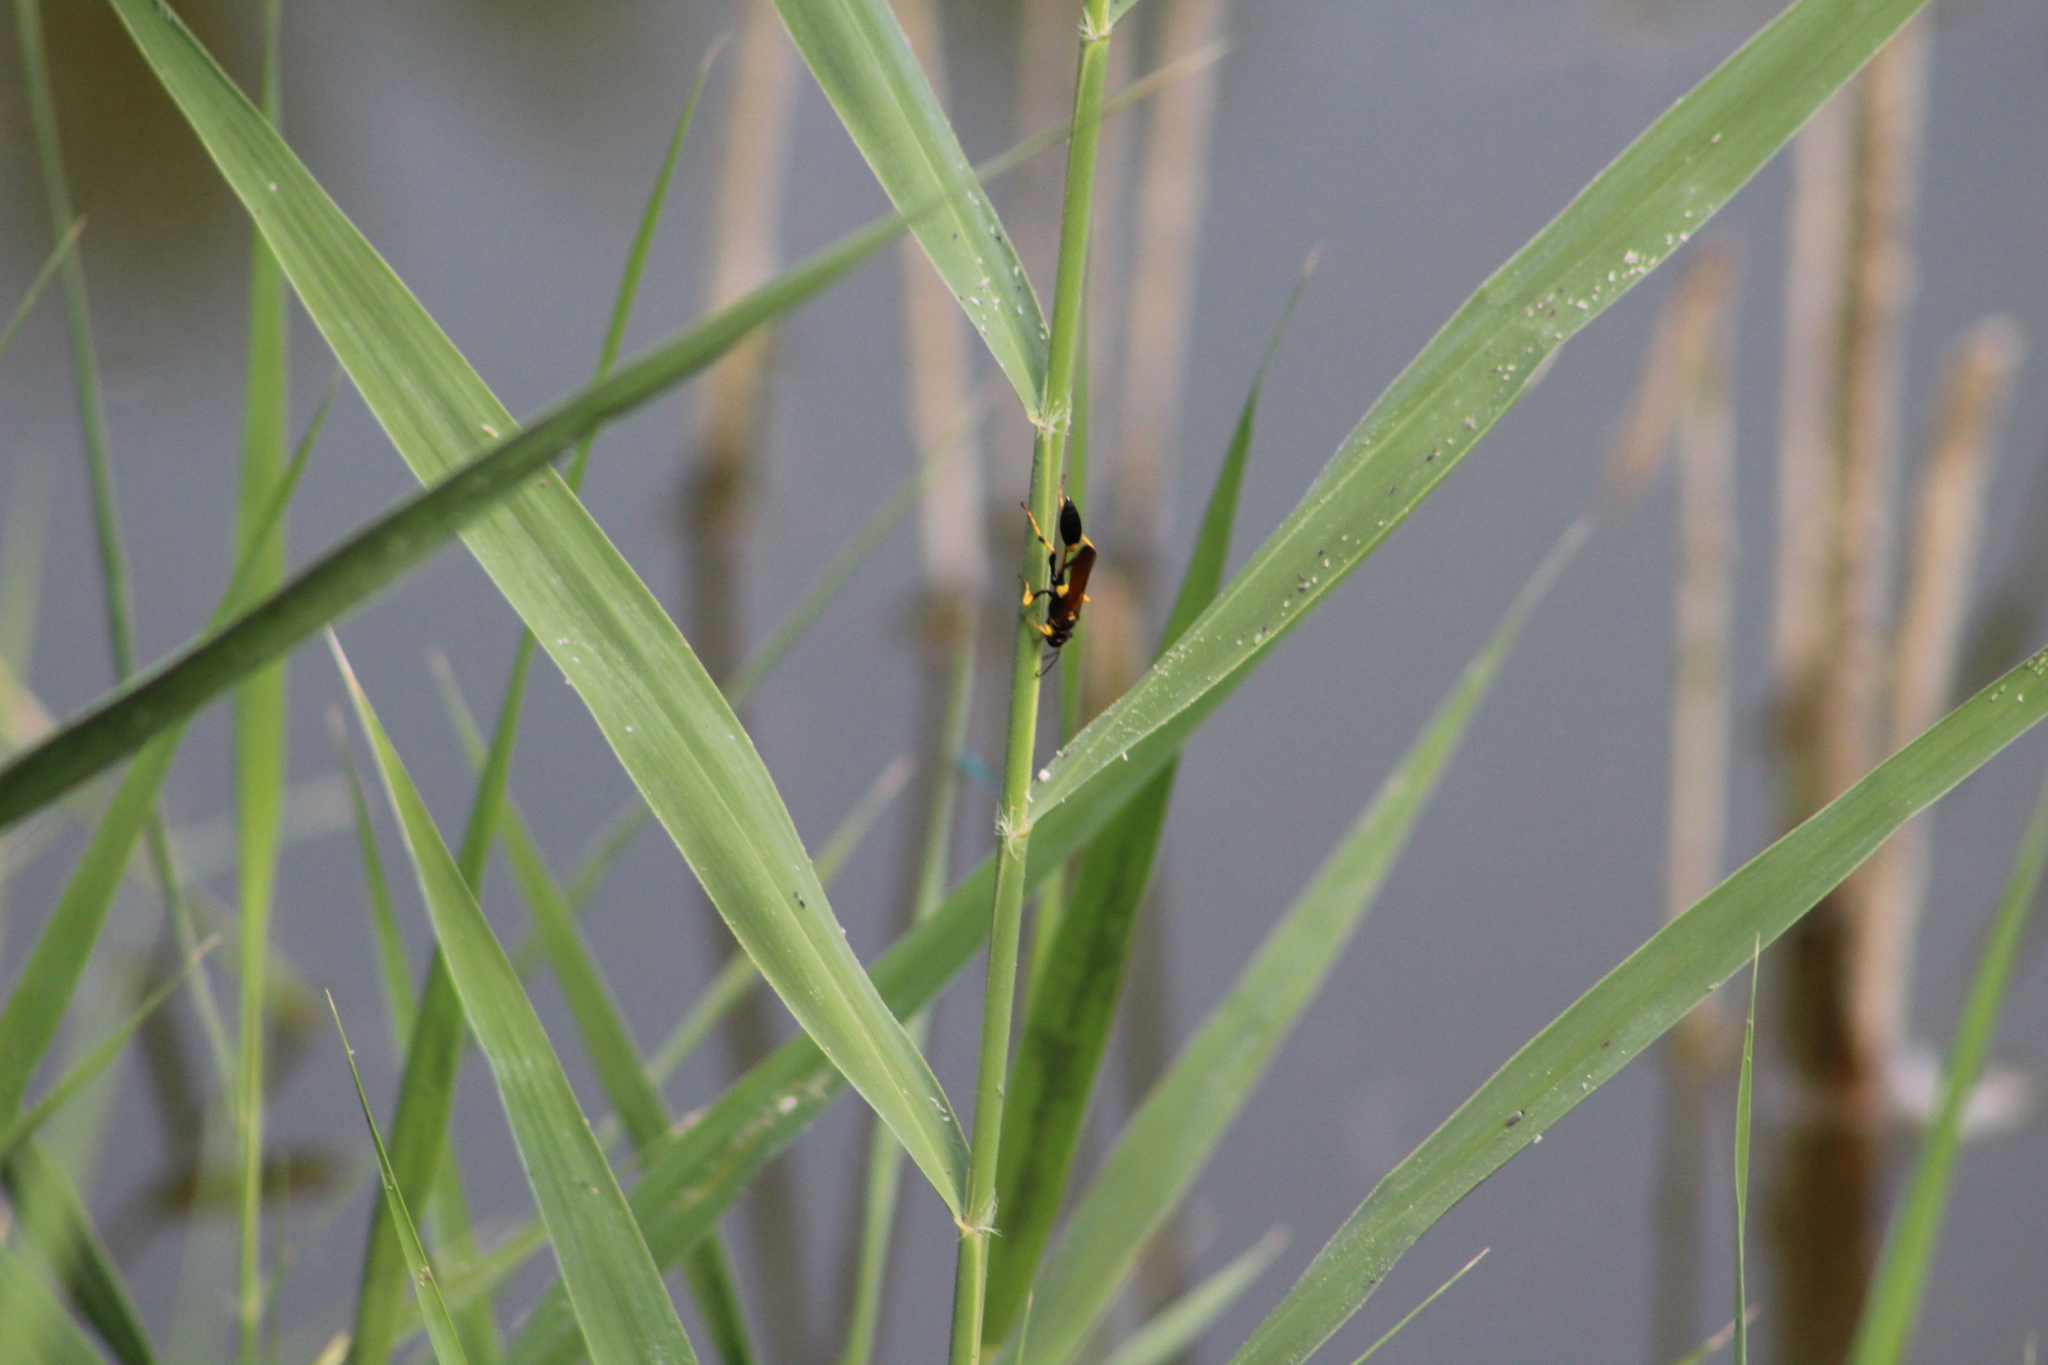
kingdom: Animalia
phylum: Arthropoda
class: Insecta
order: Hymenoptera
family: Sphecidae
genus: Sceliphron
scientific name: Sceliphron caementarium
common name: Mud dauber
